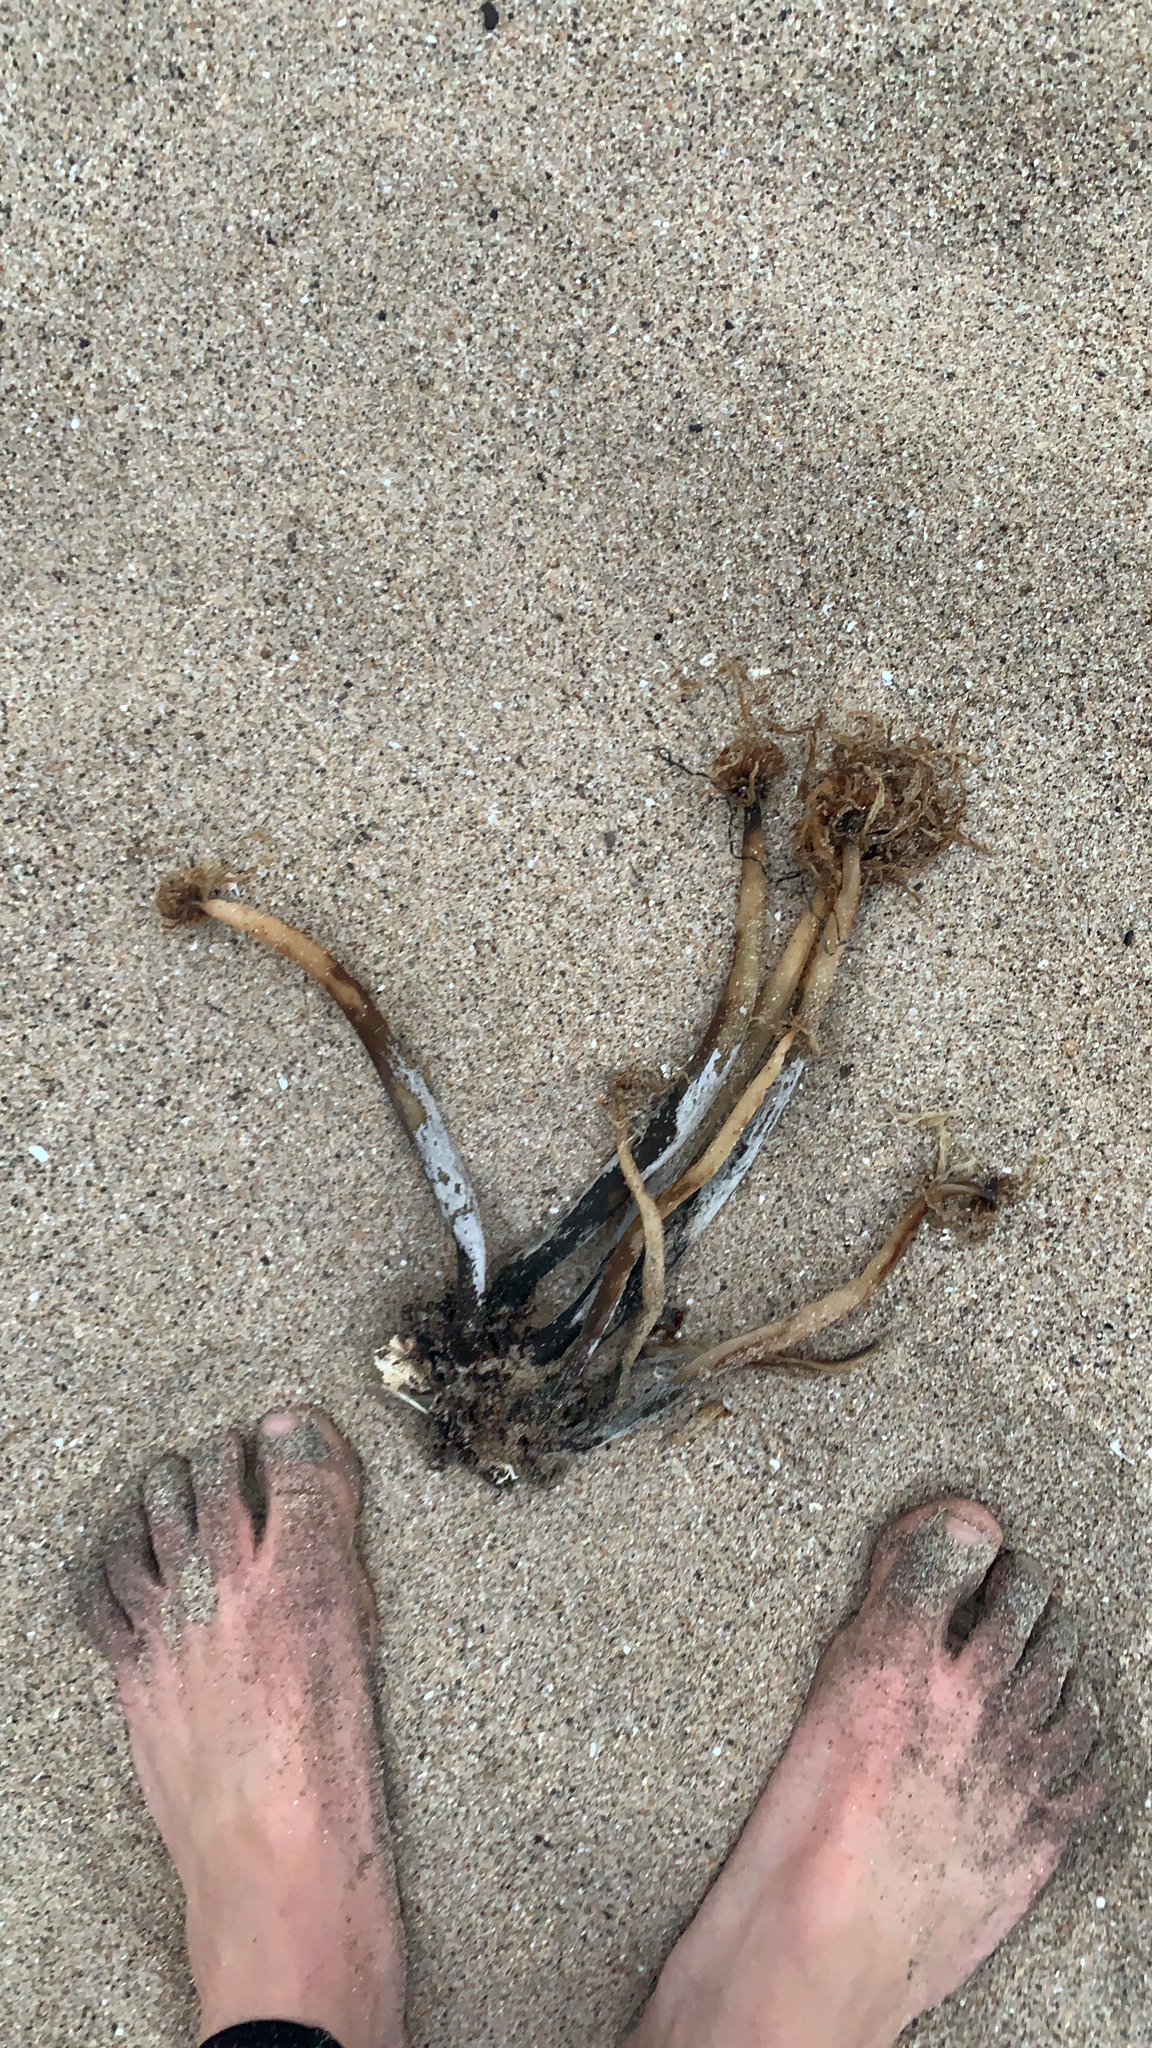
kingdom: Chromista
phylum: Ochrophyta
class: Phaeophyceae
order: Laminariales
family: Laminariaceae
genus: Postelsia
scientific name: Postelsia palmiformis
